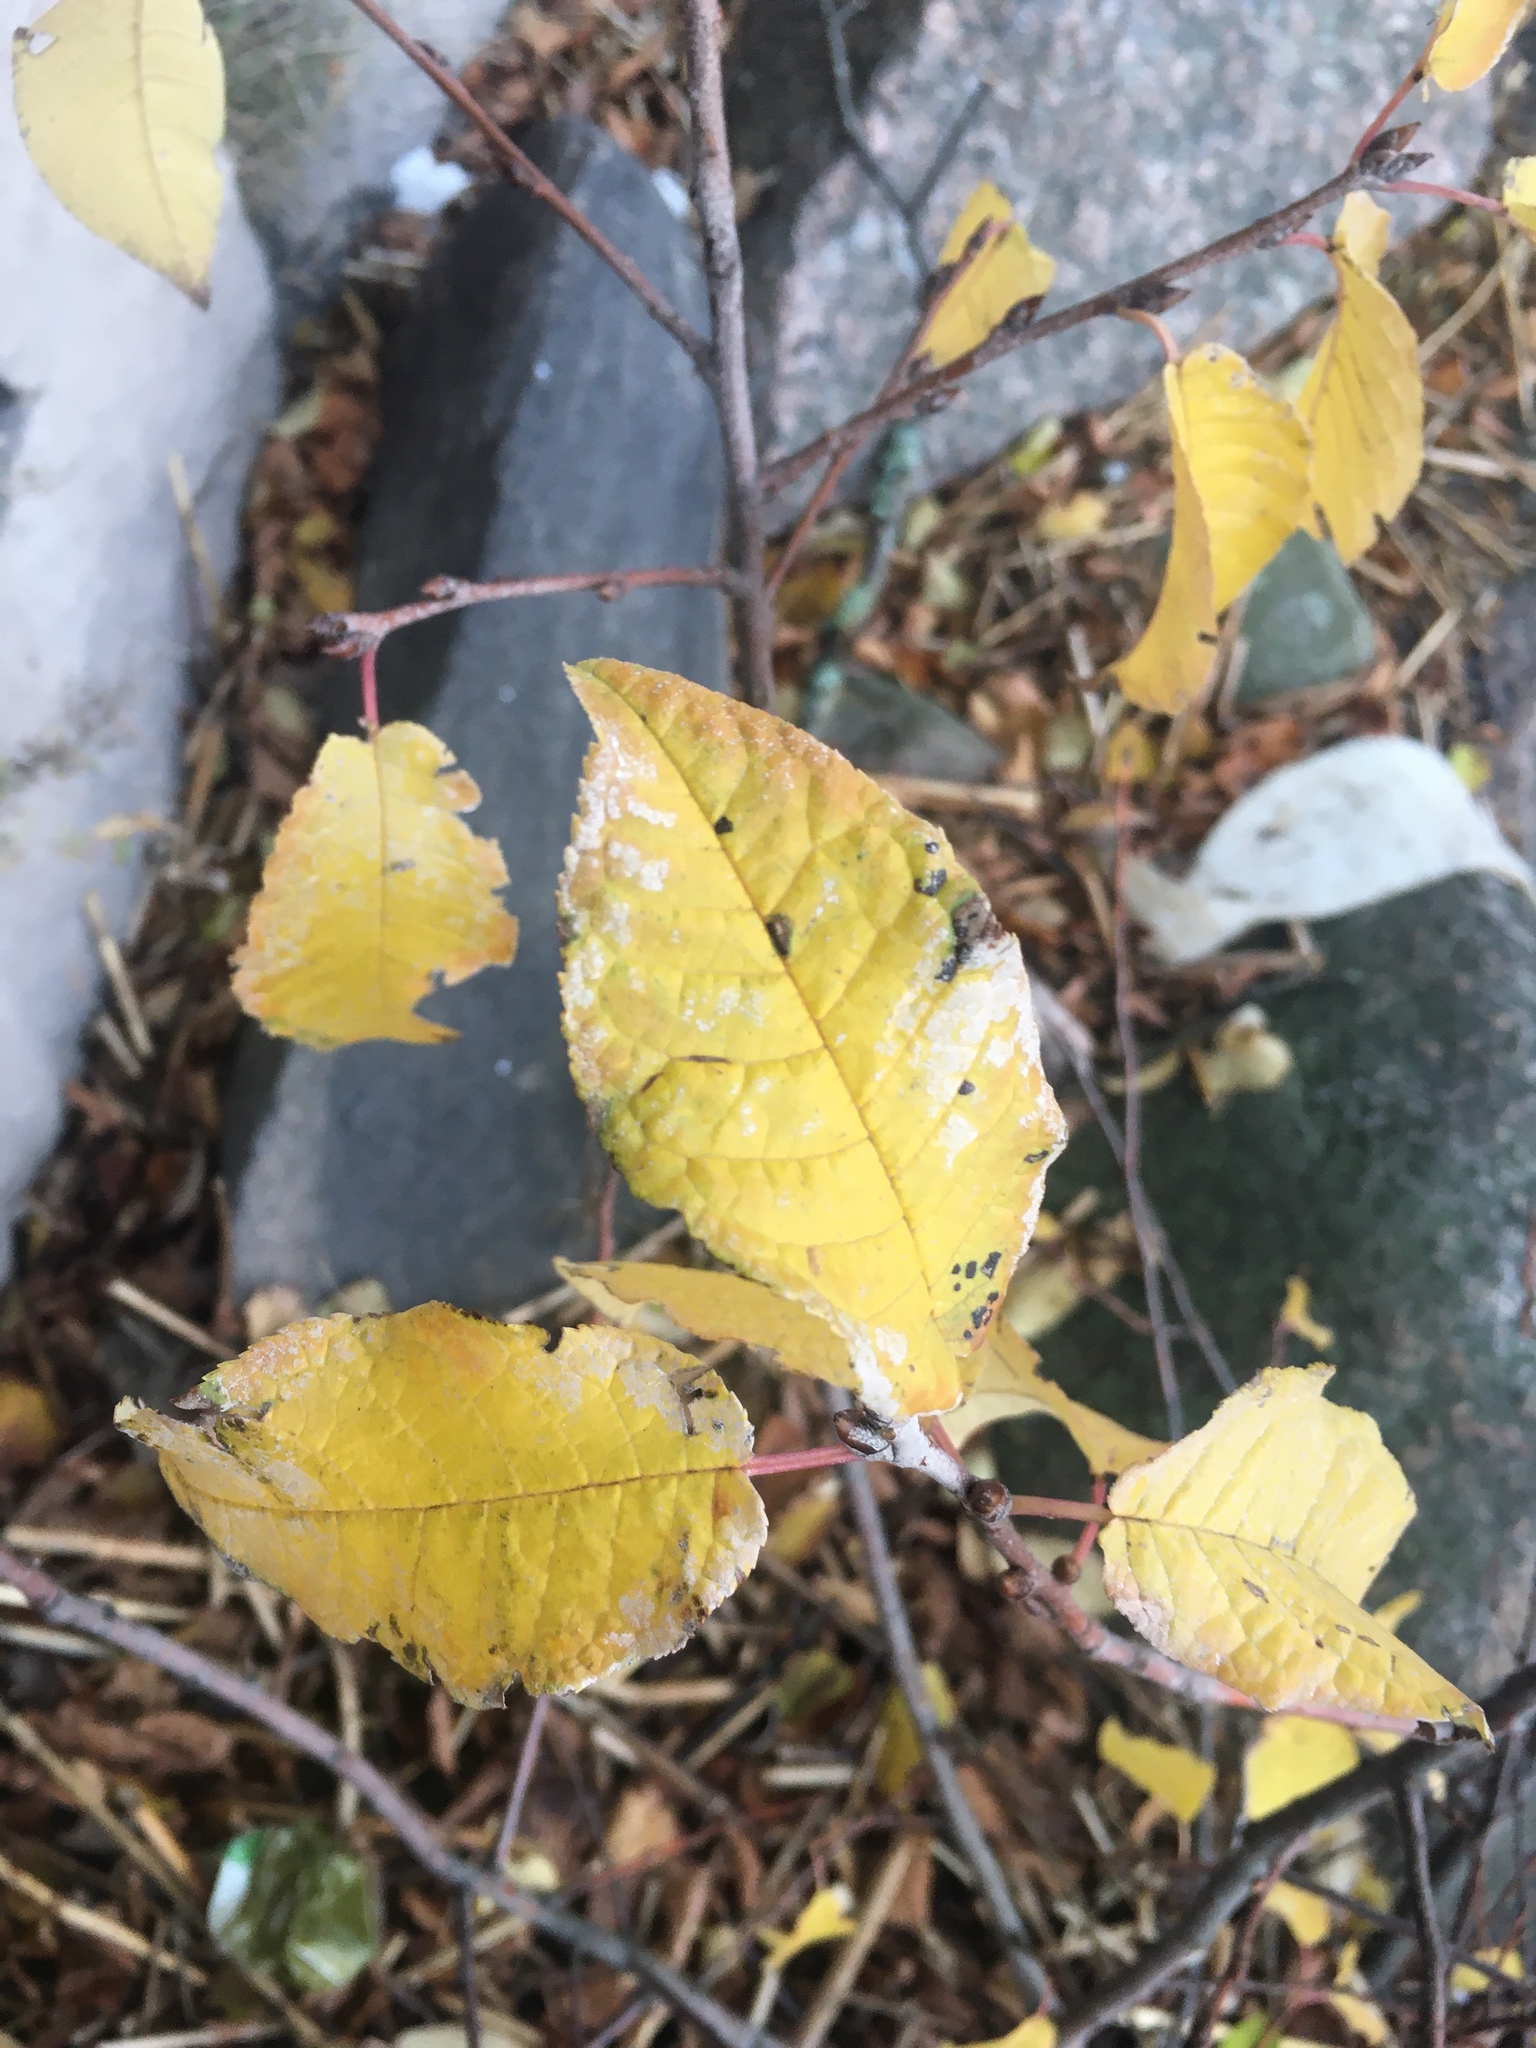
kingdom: Plantae
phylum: Tracheophyta
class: Magnoliopsida
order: Rosales
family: Rosaceae
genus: Prunus
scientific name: Prunus padus
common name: Bird cherry
